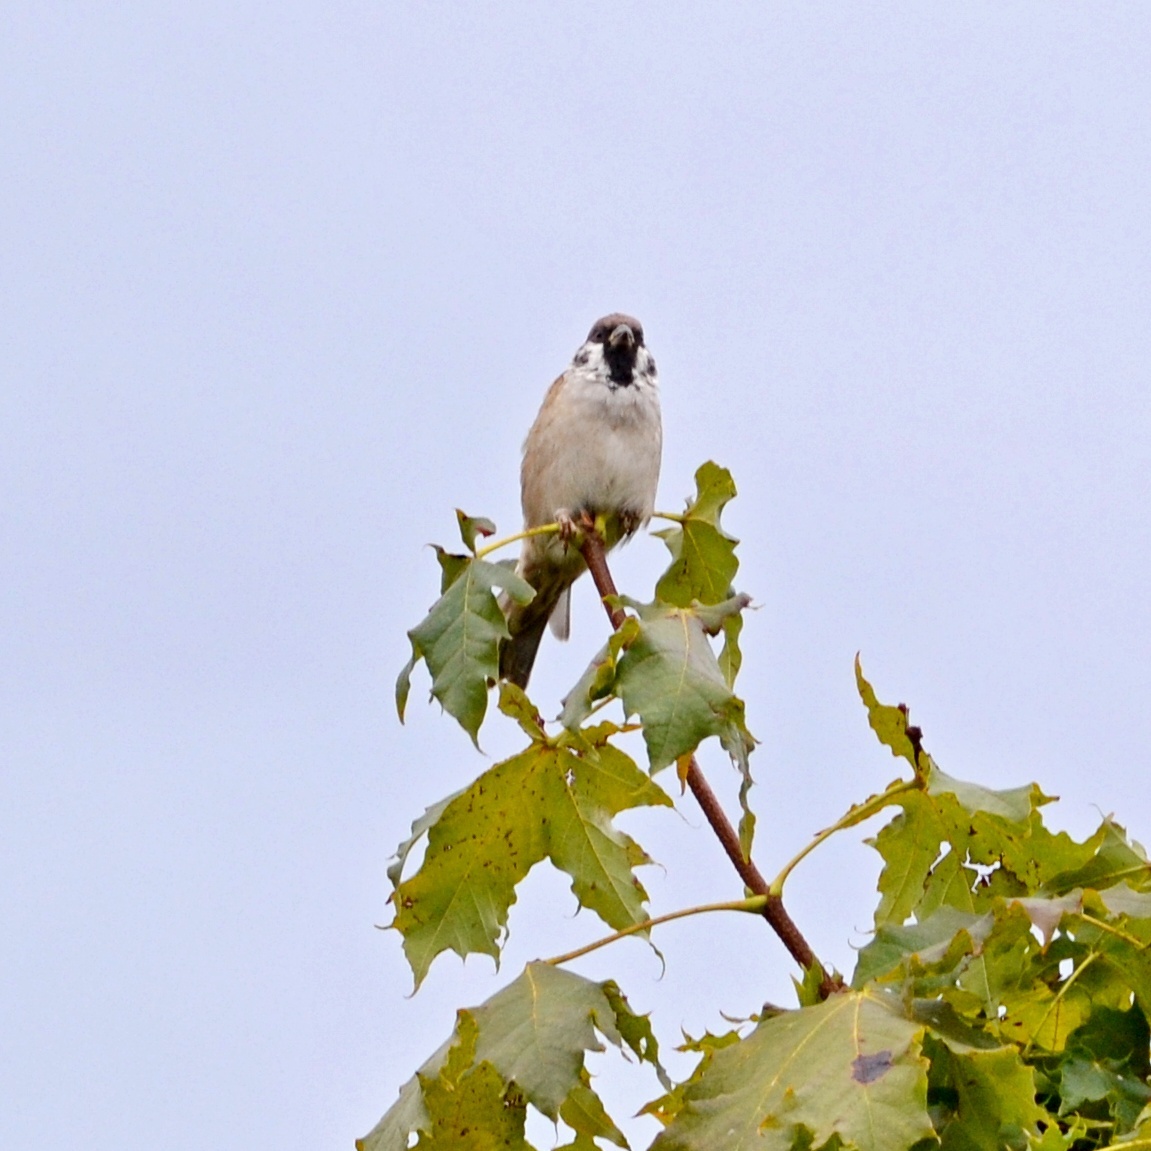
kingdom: Animalia
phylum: Chordata
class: Aves
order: Passeriformes
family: Passeridae
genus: Passer
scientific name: Passer montanus
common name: Eurasian tree sparrow
